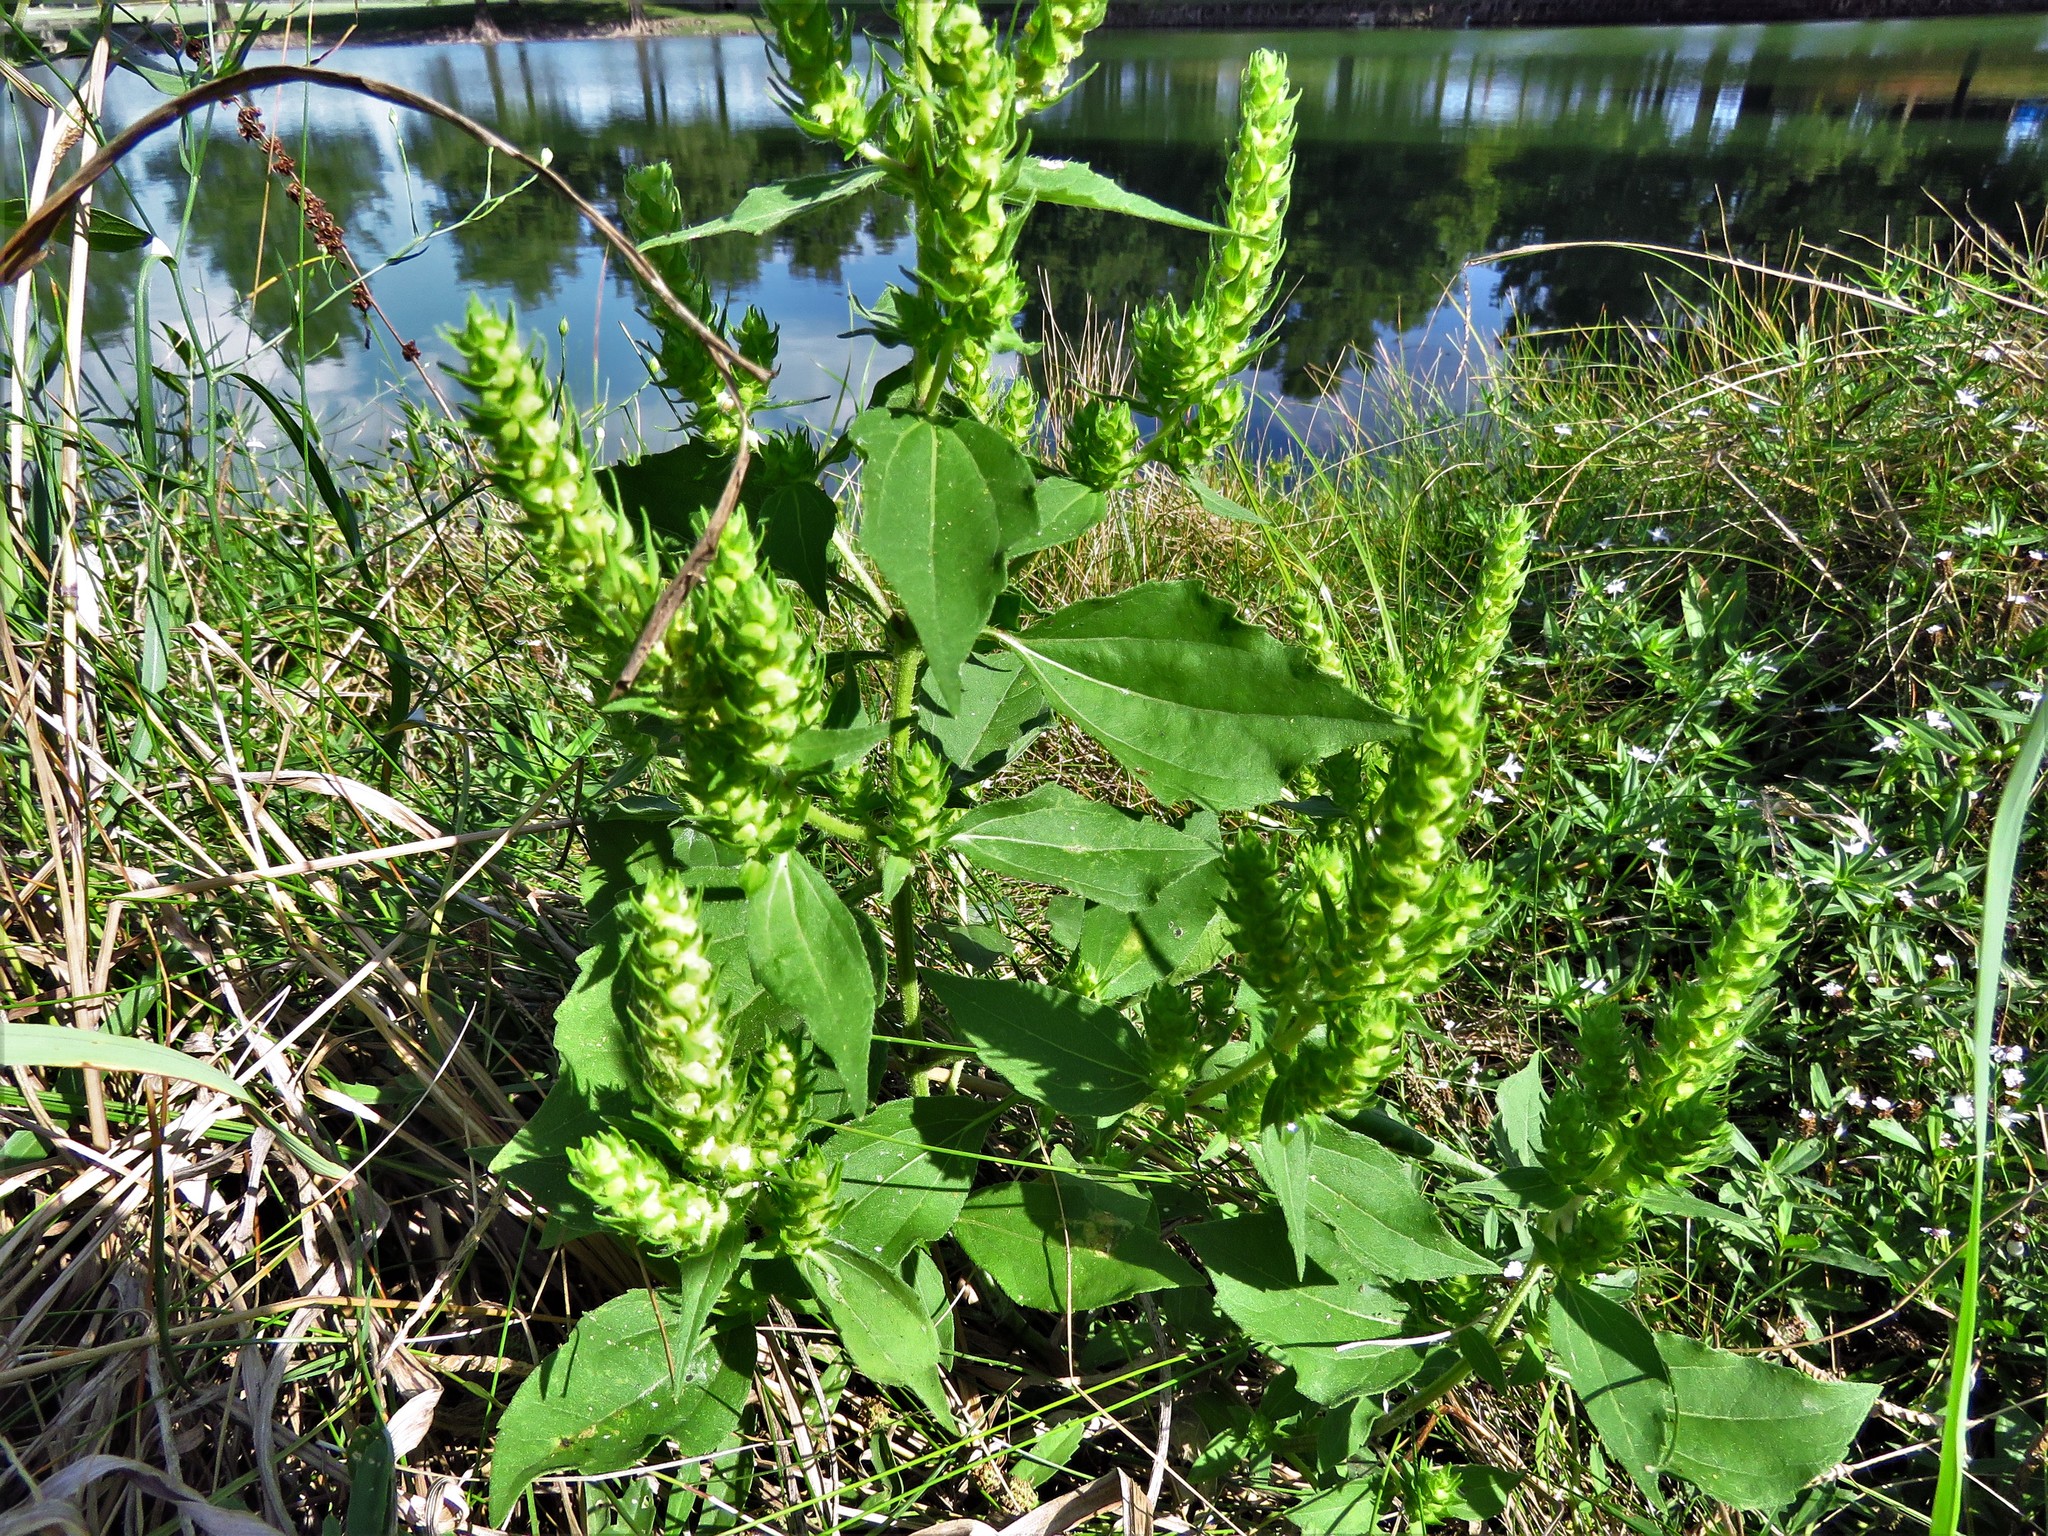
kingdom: Plantae
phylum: Tracheophyta
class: Magnoliopsida
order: Asterales
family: Asteraceae
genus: Iva
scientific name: Iva annua
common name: Marsh-elder
